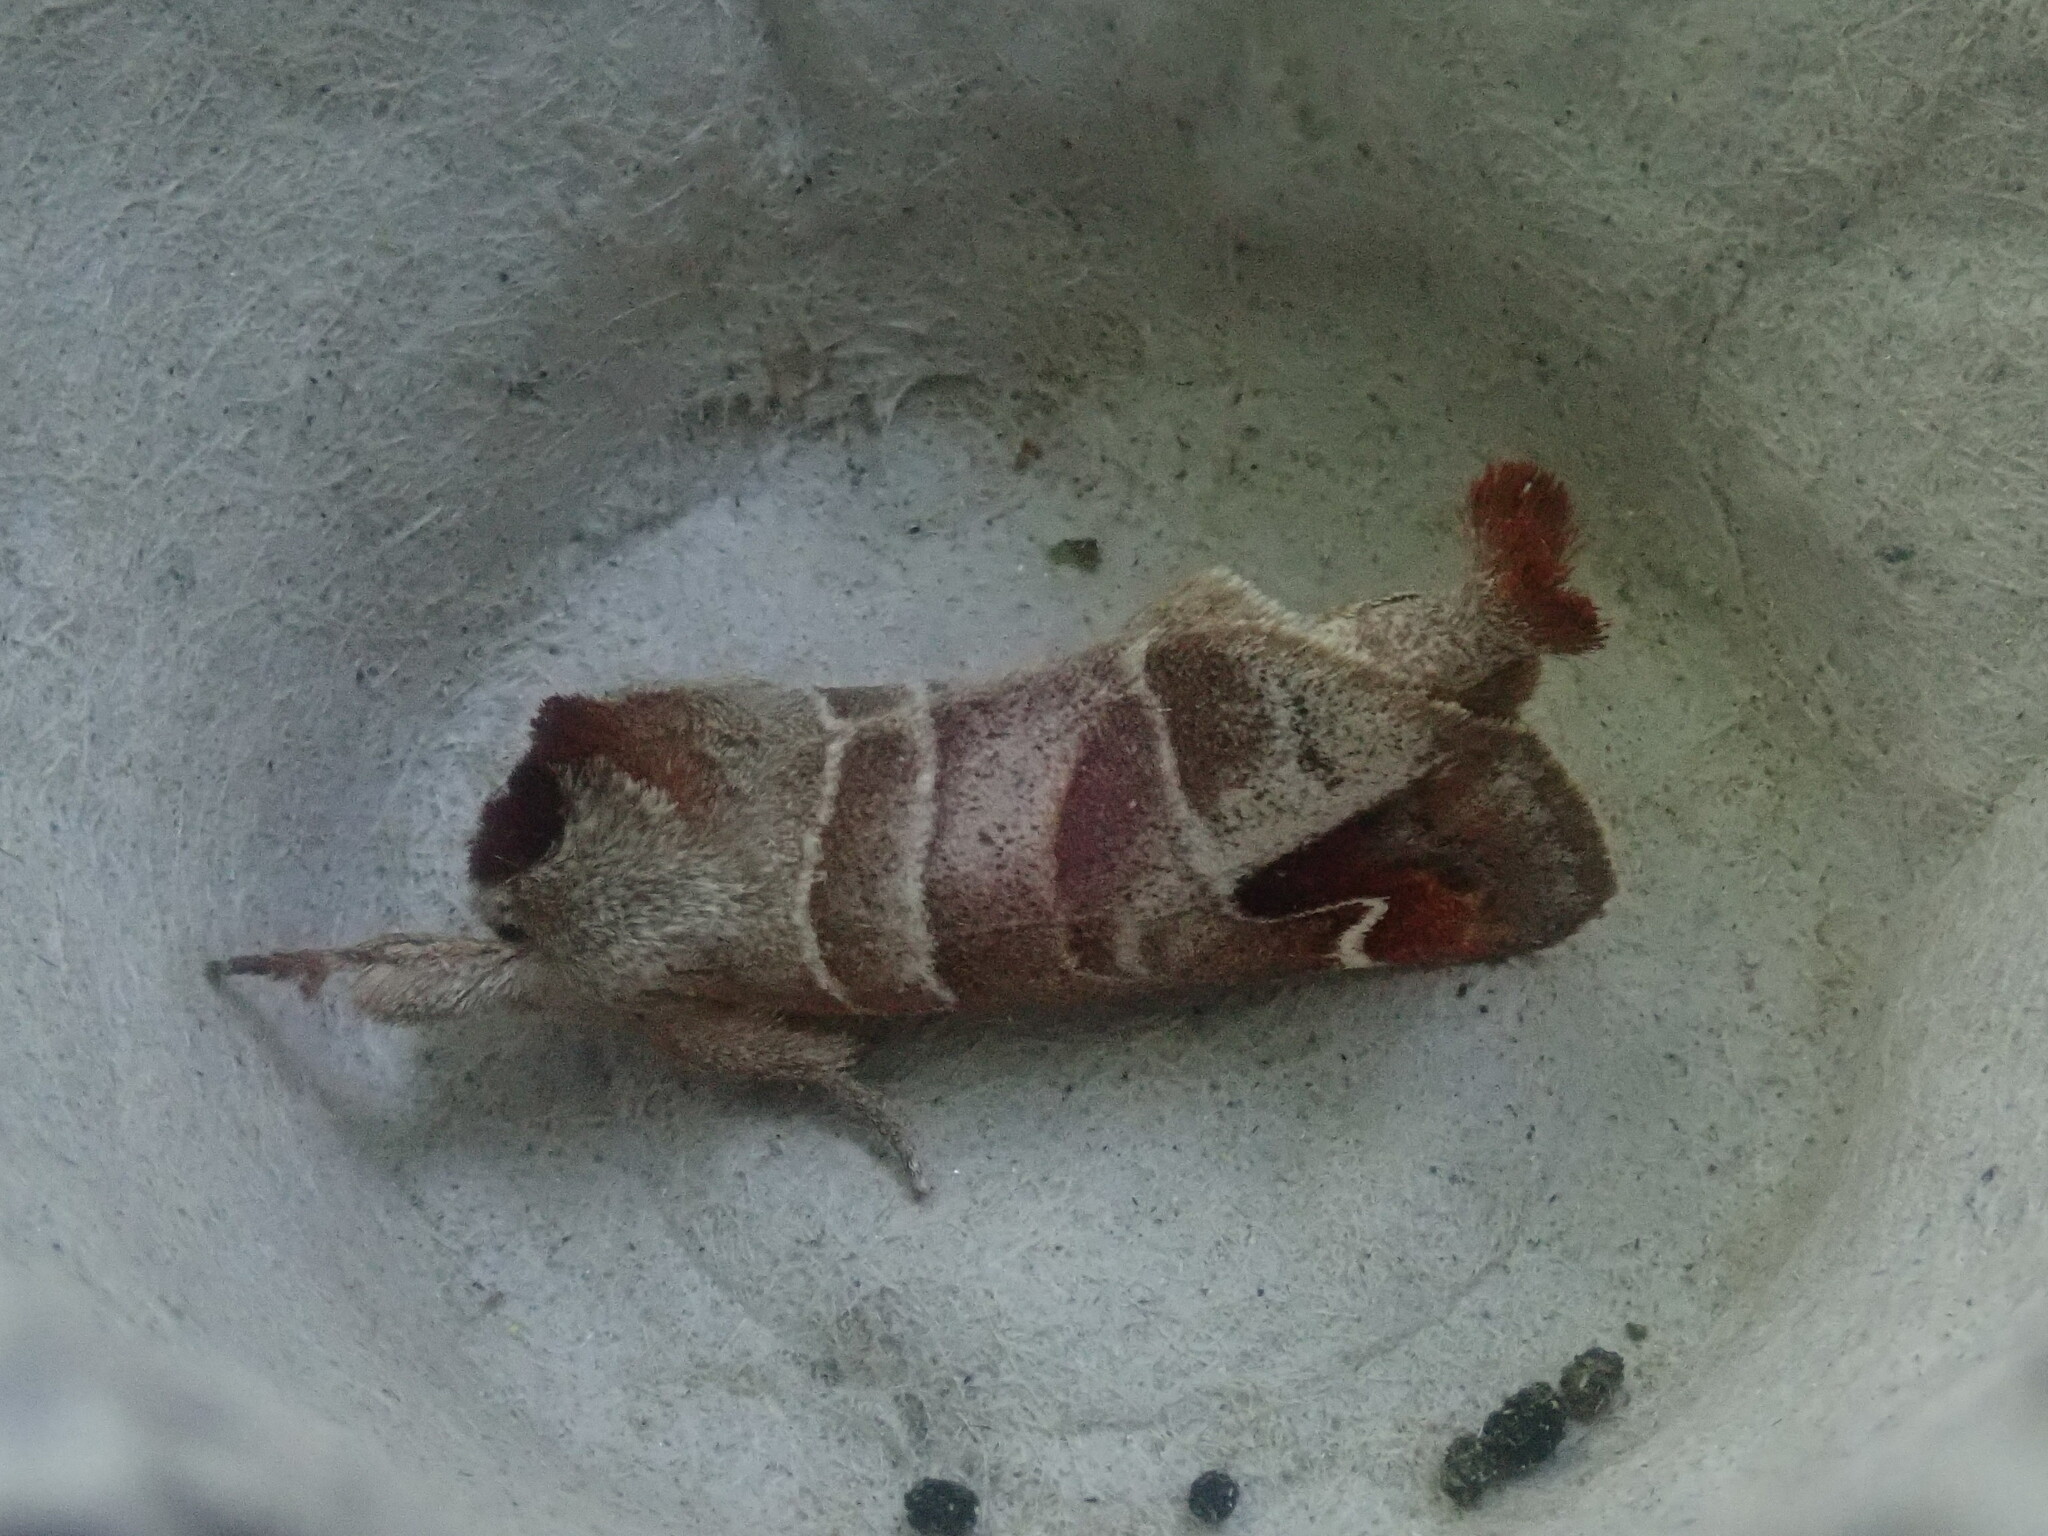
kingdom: Animalia
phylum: Arthropoda
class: Insecta
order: Lepidoptera
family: Notodontidae
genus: Clostera
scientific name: Clostera albosigma
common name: Sigmoid prominent
